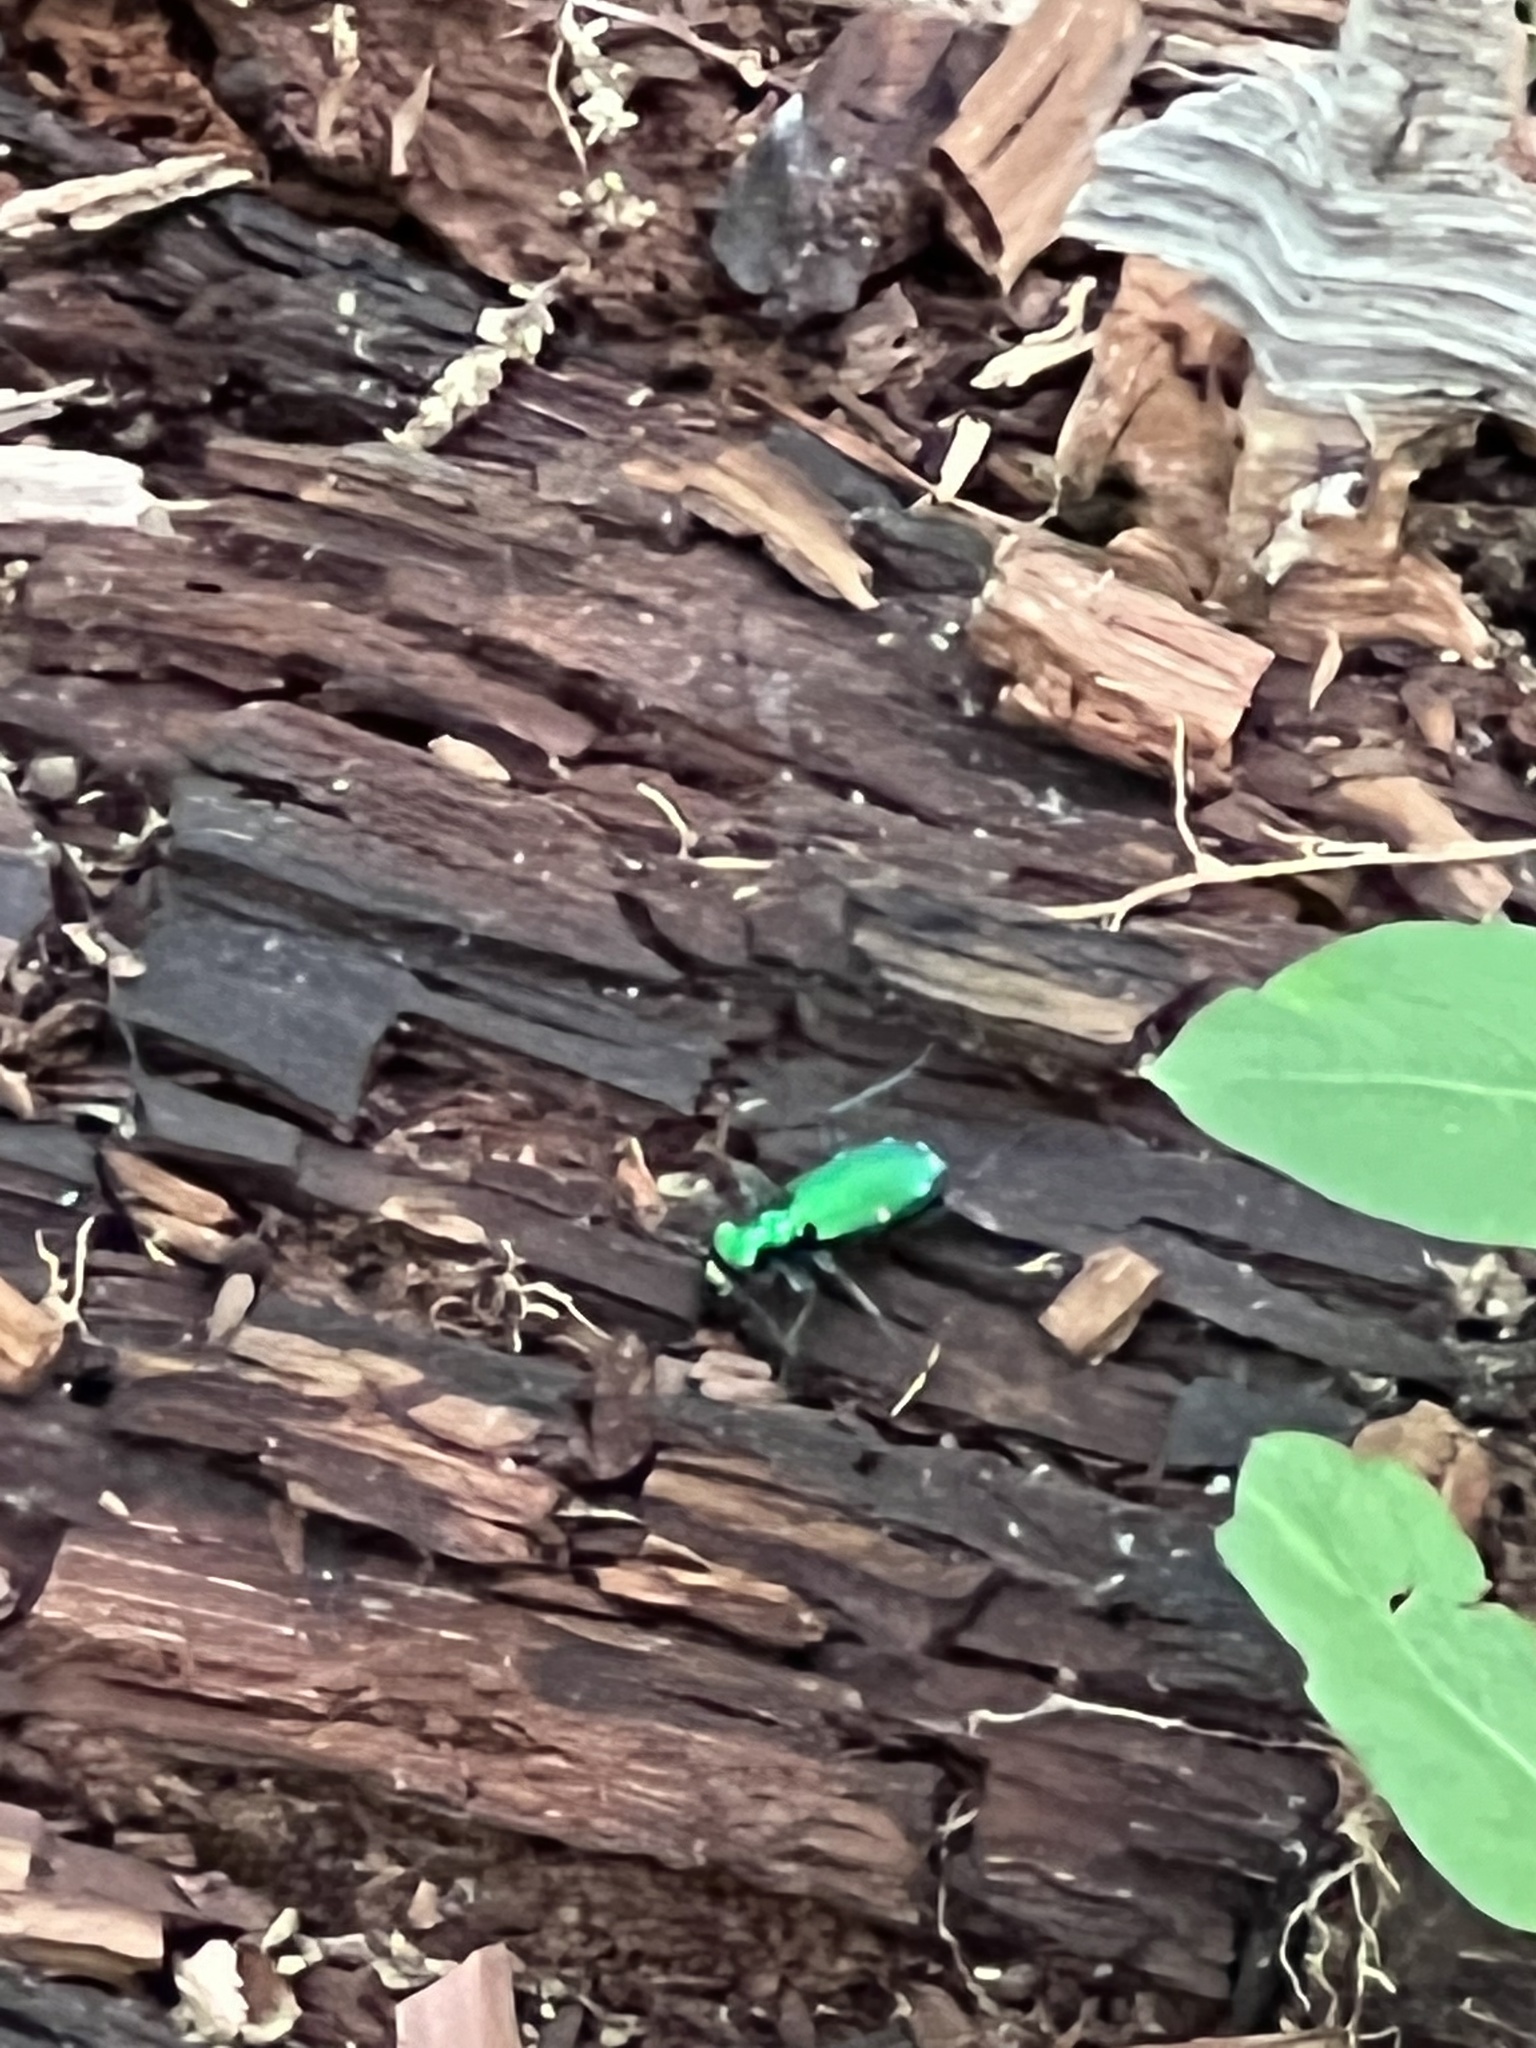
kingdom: Animalia
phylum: Arthropoda
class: Insecta
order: Coleoptera
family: Carabidae
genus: Cicindela
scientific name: Cicindela sexguttata
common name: Six-spotted tiger beetle
